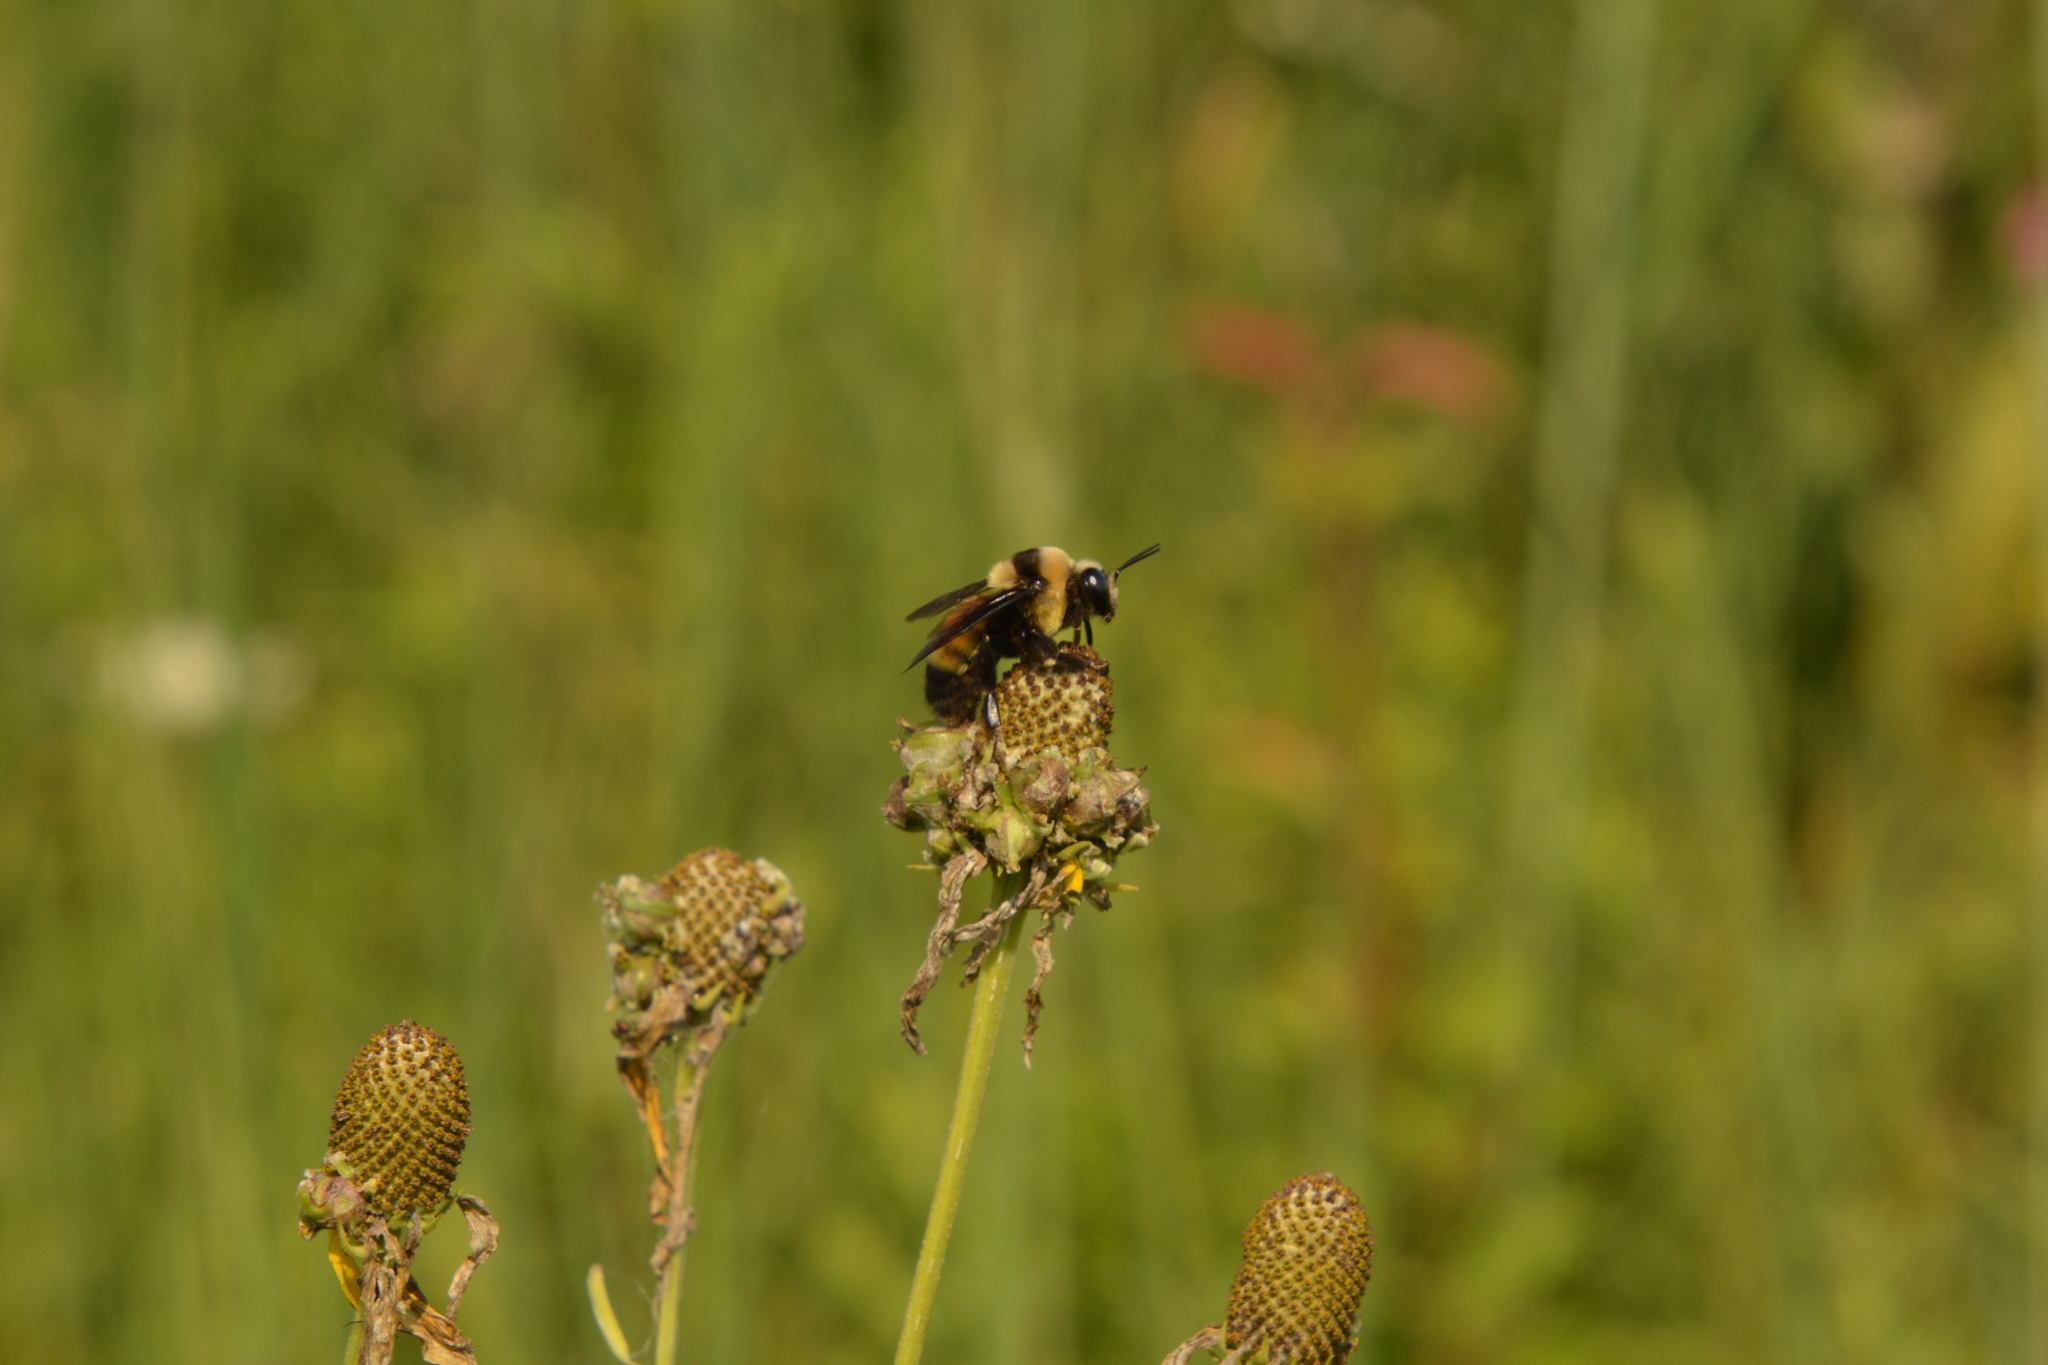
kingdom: Animalia
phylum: Arthropoda
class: Insecta
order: Hymenoptera
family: Apidae
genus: Bombus
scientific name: Bombus auricomus
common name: Black and gold bumble bee
